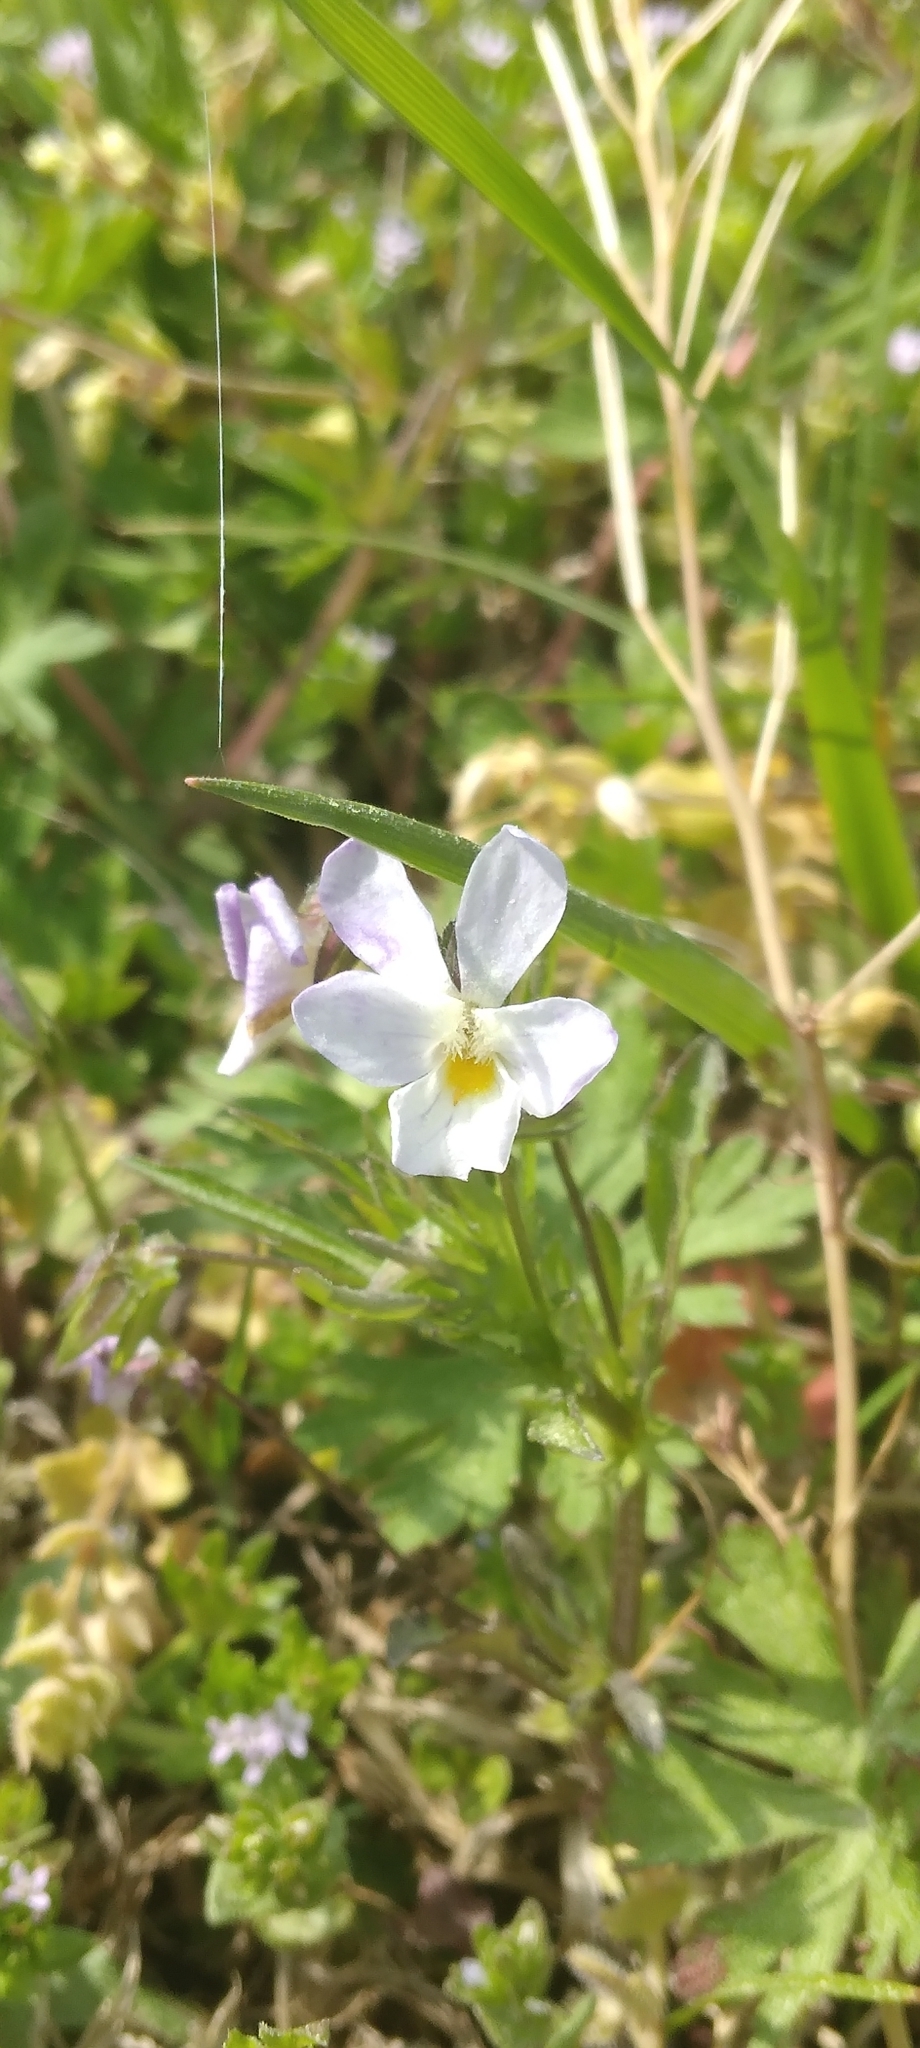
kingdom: Plantae
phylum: Tracheophyta
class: Magnoliopsida
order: Malpighiales
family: Violaceae
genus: Viola
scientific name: Viola rafinesquei
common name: American field pansy
